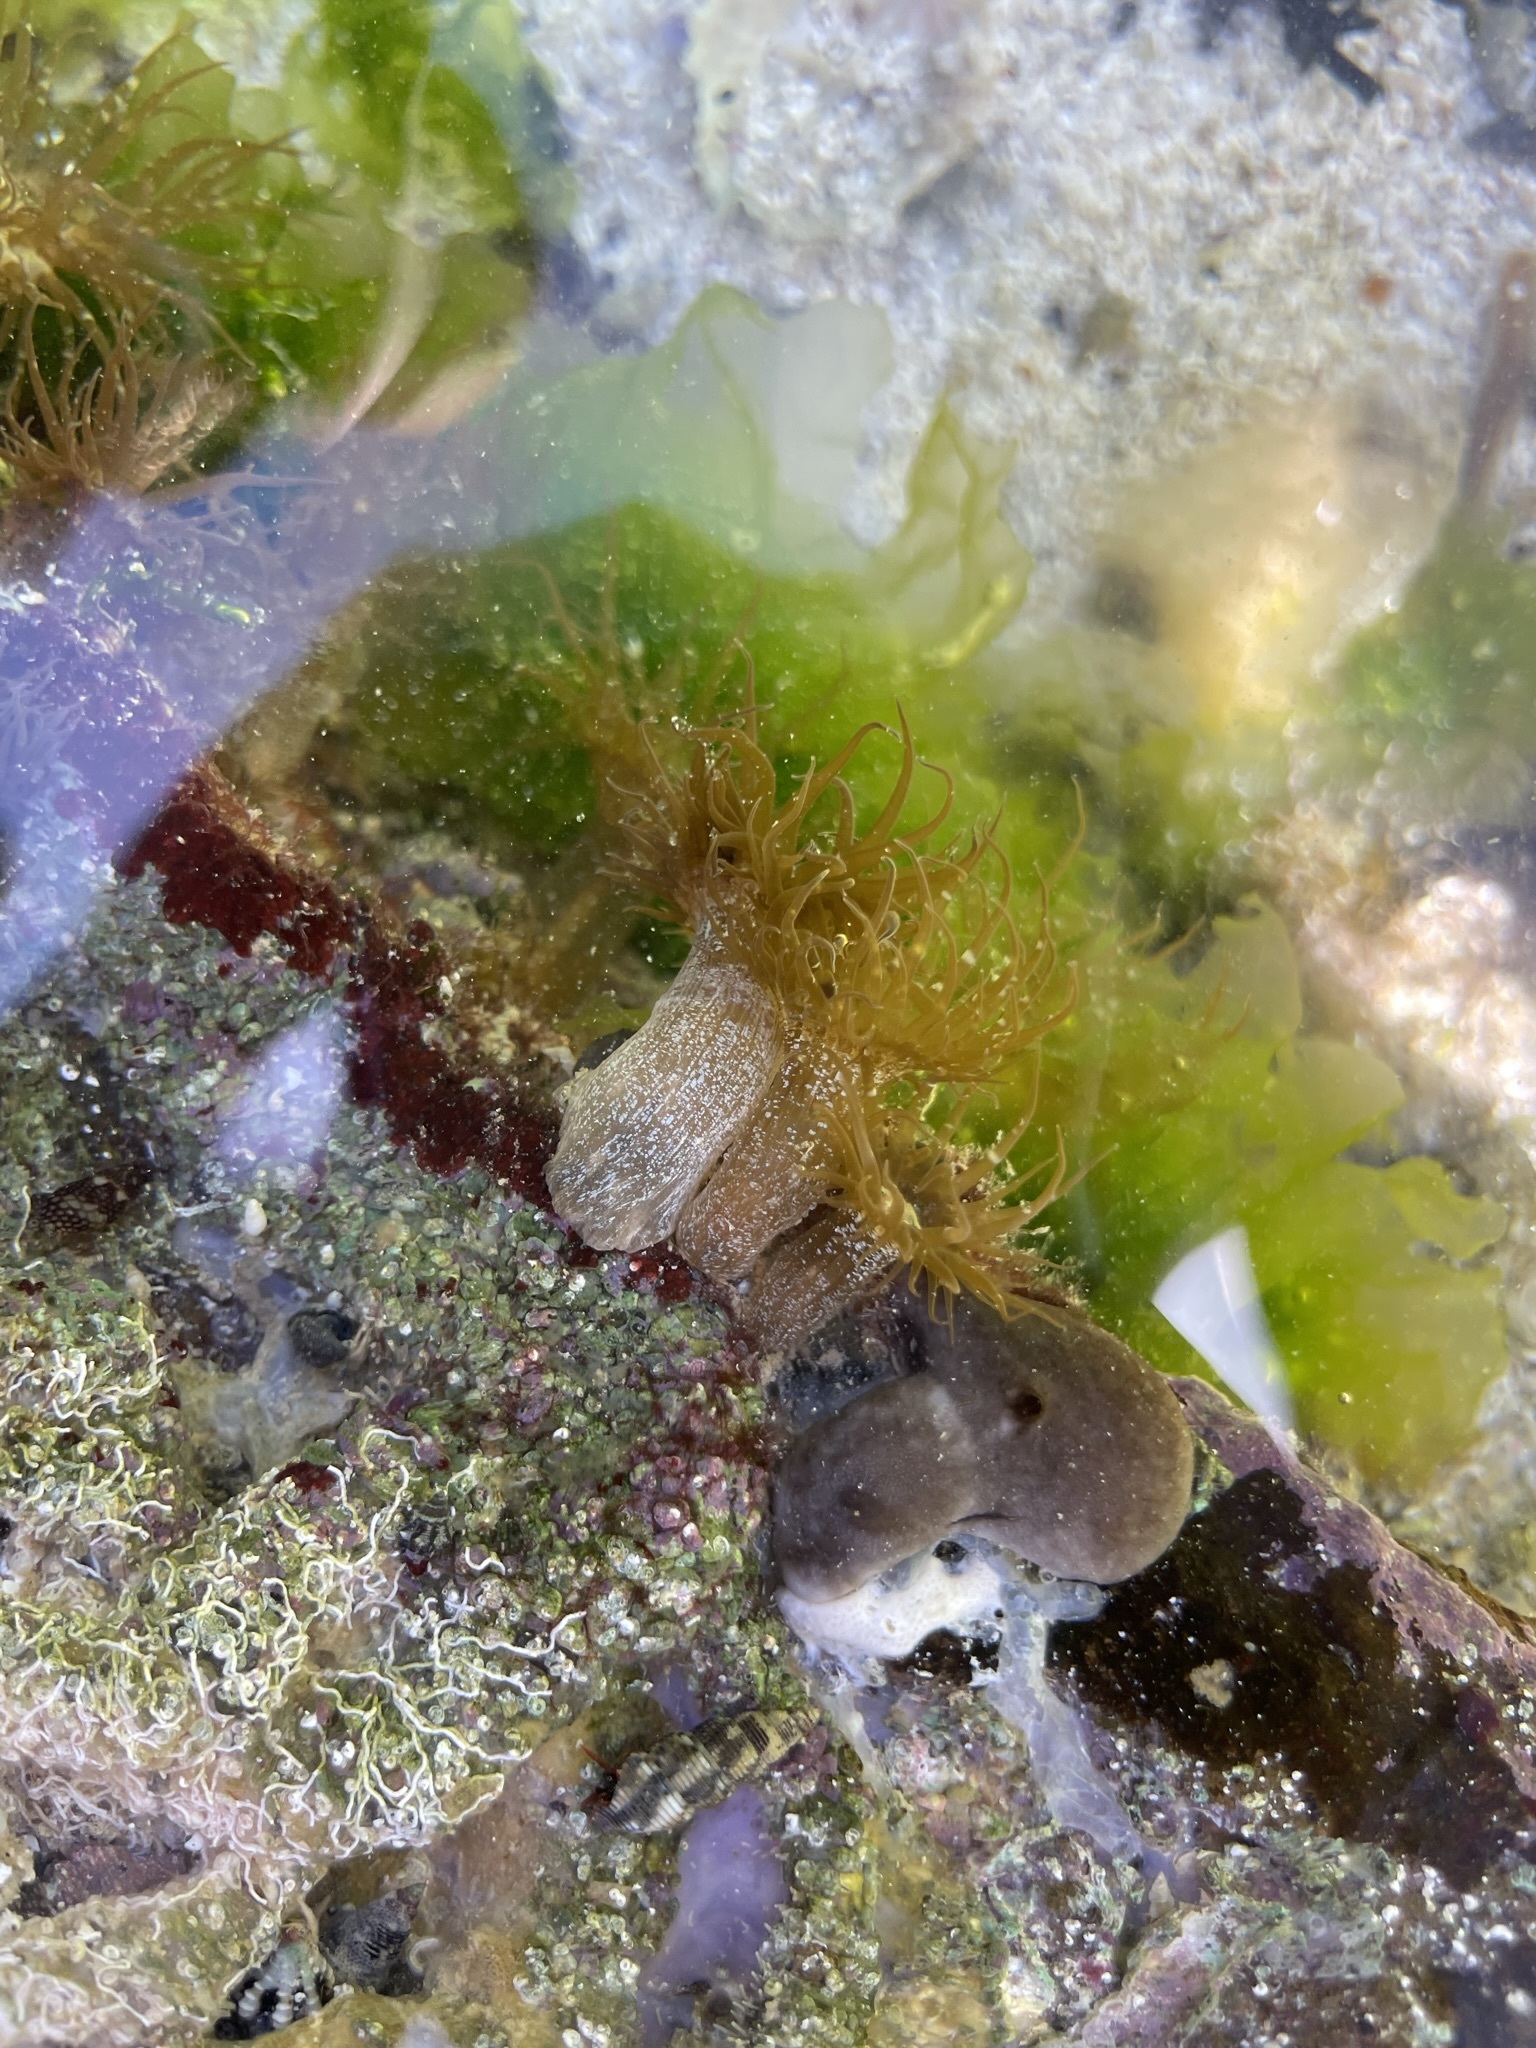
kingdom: Animalia
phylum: Cnidaria
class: Anthozoa
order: Actiniaria
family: Aiptasiidae
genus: Exaiptasia
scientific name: Exaiptasia diaphana
